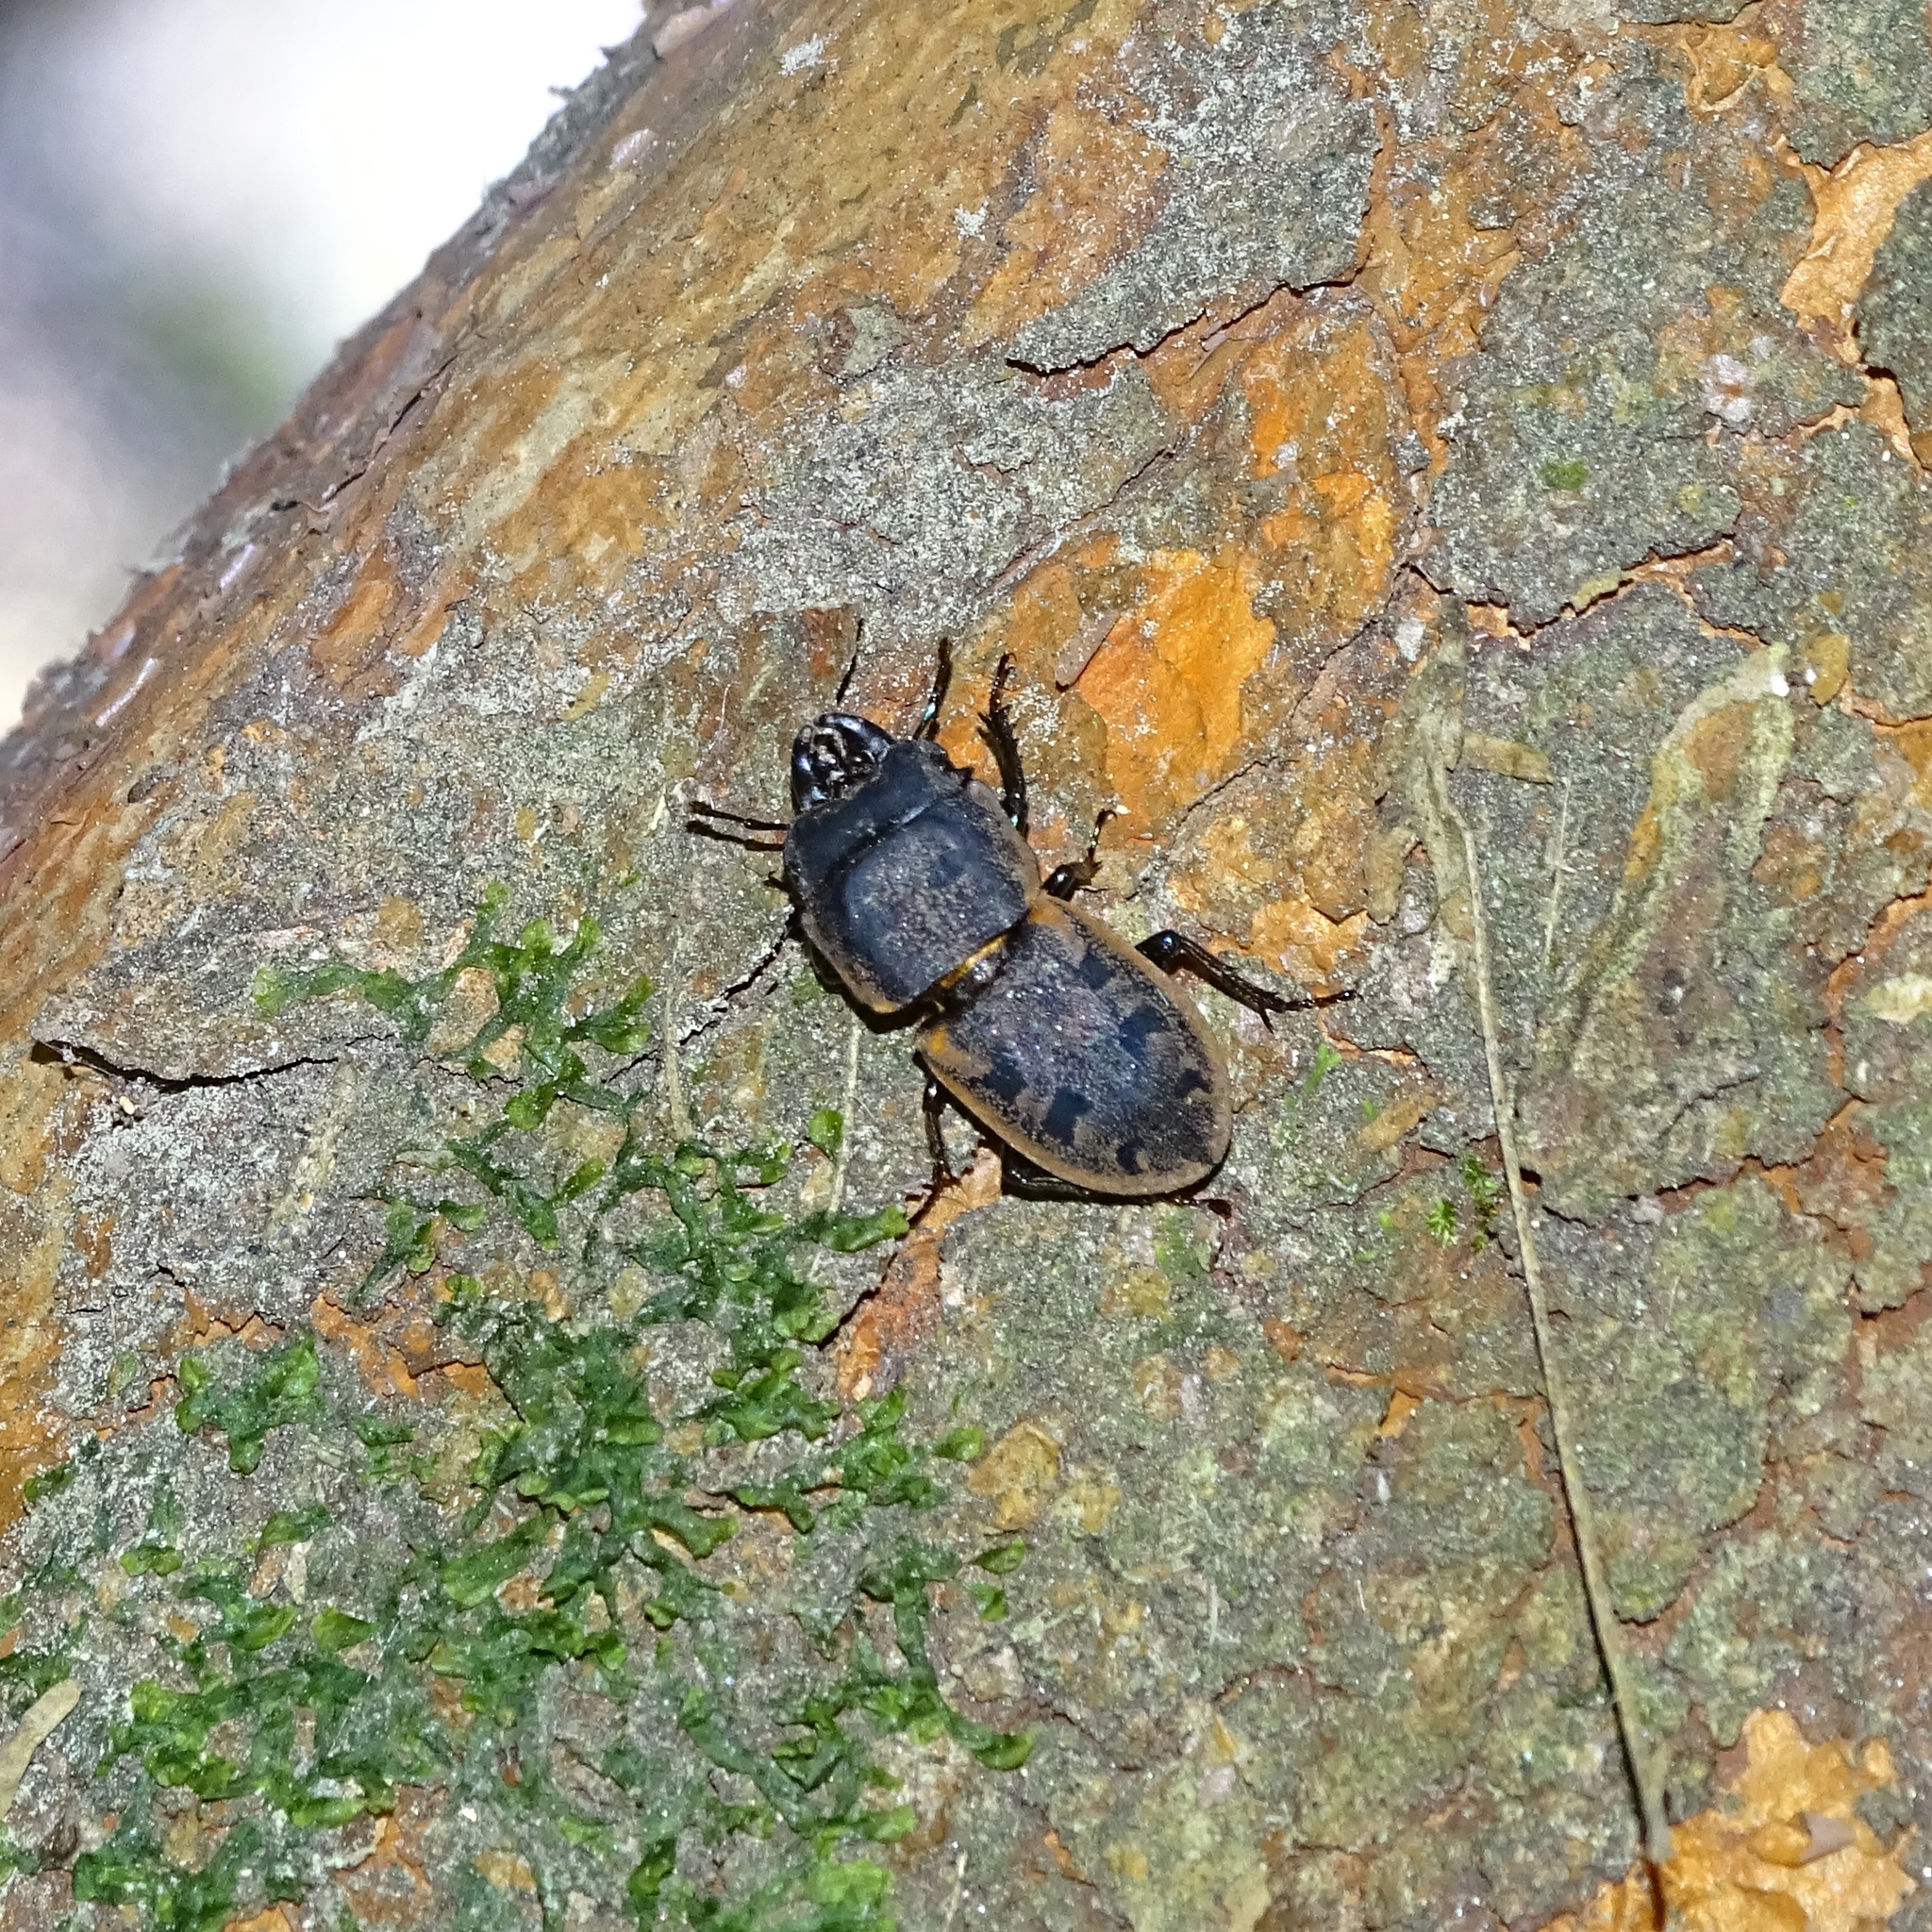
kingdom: Animalia
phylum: Arthropoda
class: Insecta
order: Coleoptera
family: Lucanidae
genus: Erichius
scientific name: Erichius fasciatus
